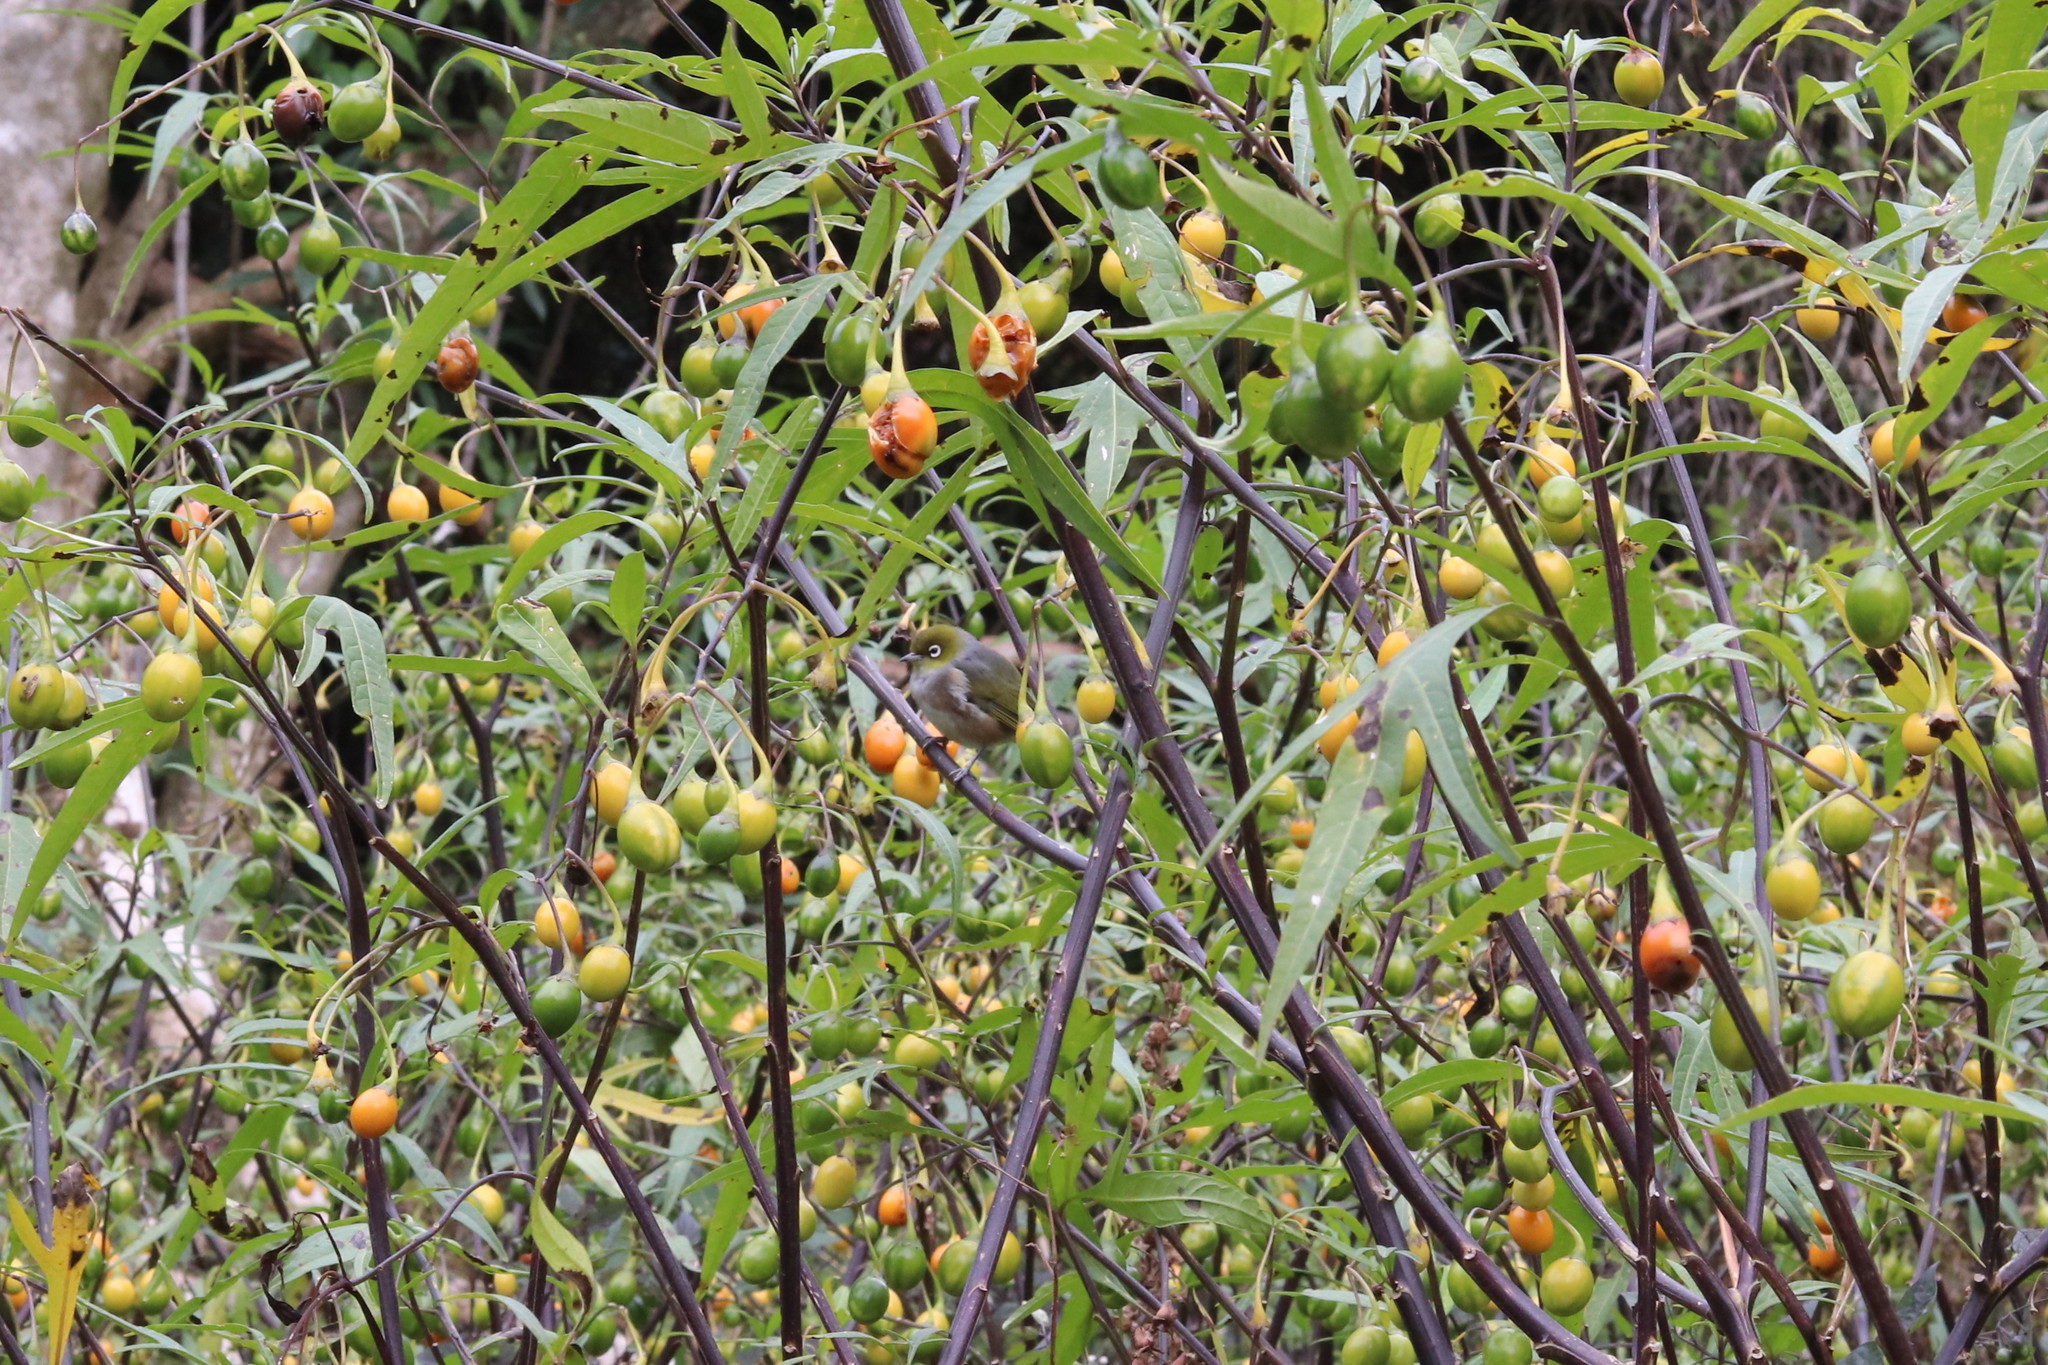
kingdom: Animalia
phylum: Chordata
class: Aves
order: Passeriformes
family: Zosteropidae
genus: Zosterops
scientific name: Zosterops lateralis
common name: Silvereye
